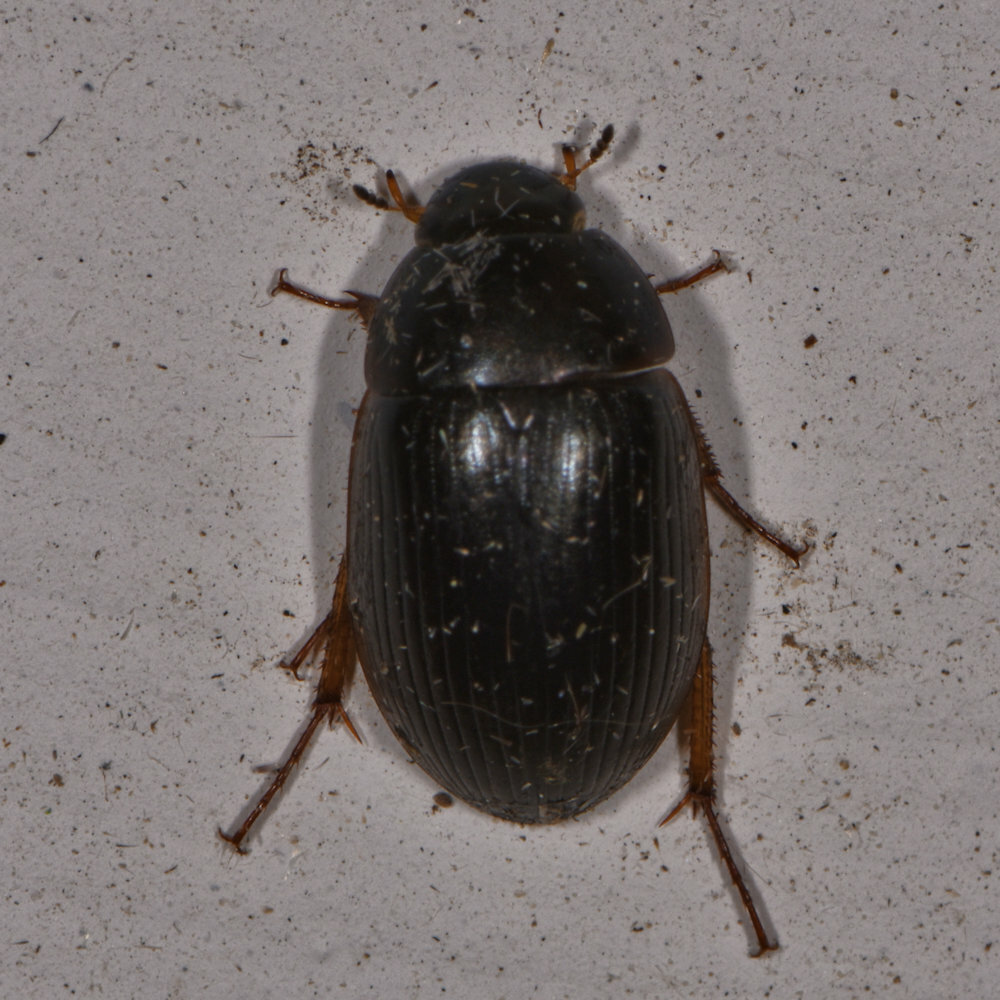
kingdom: Animalia
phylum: Arthropoda
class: Insecta
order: Coleoptera
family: Hydrophilidae
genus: Hydrobius
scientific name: Hydrobius fuscipes
